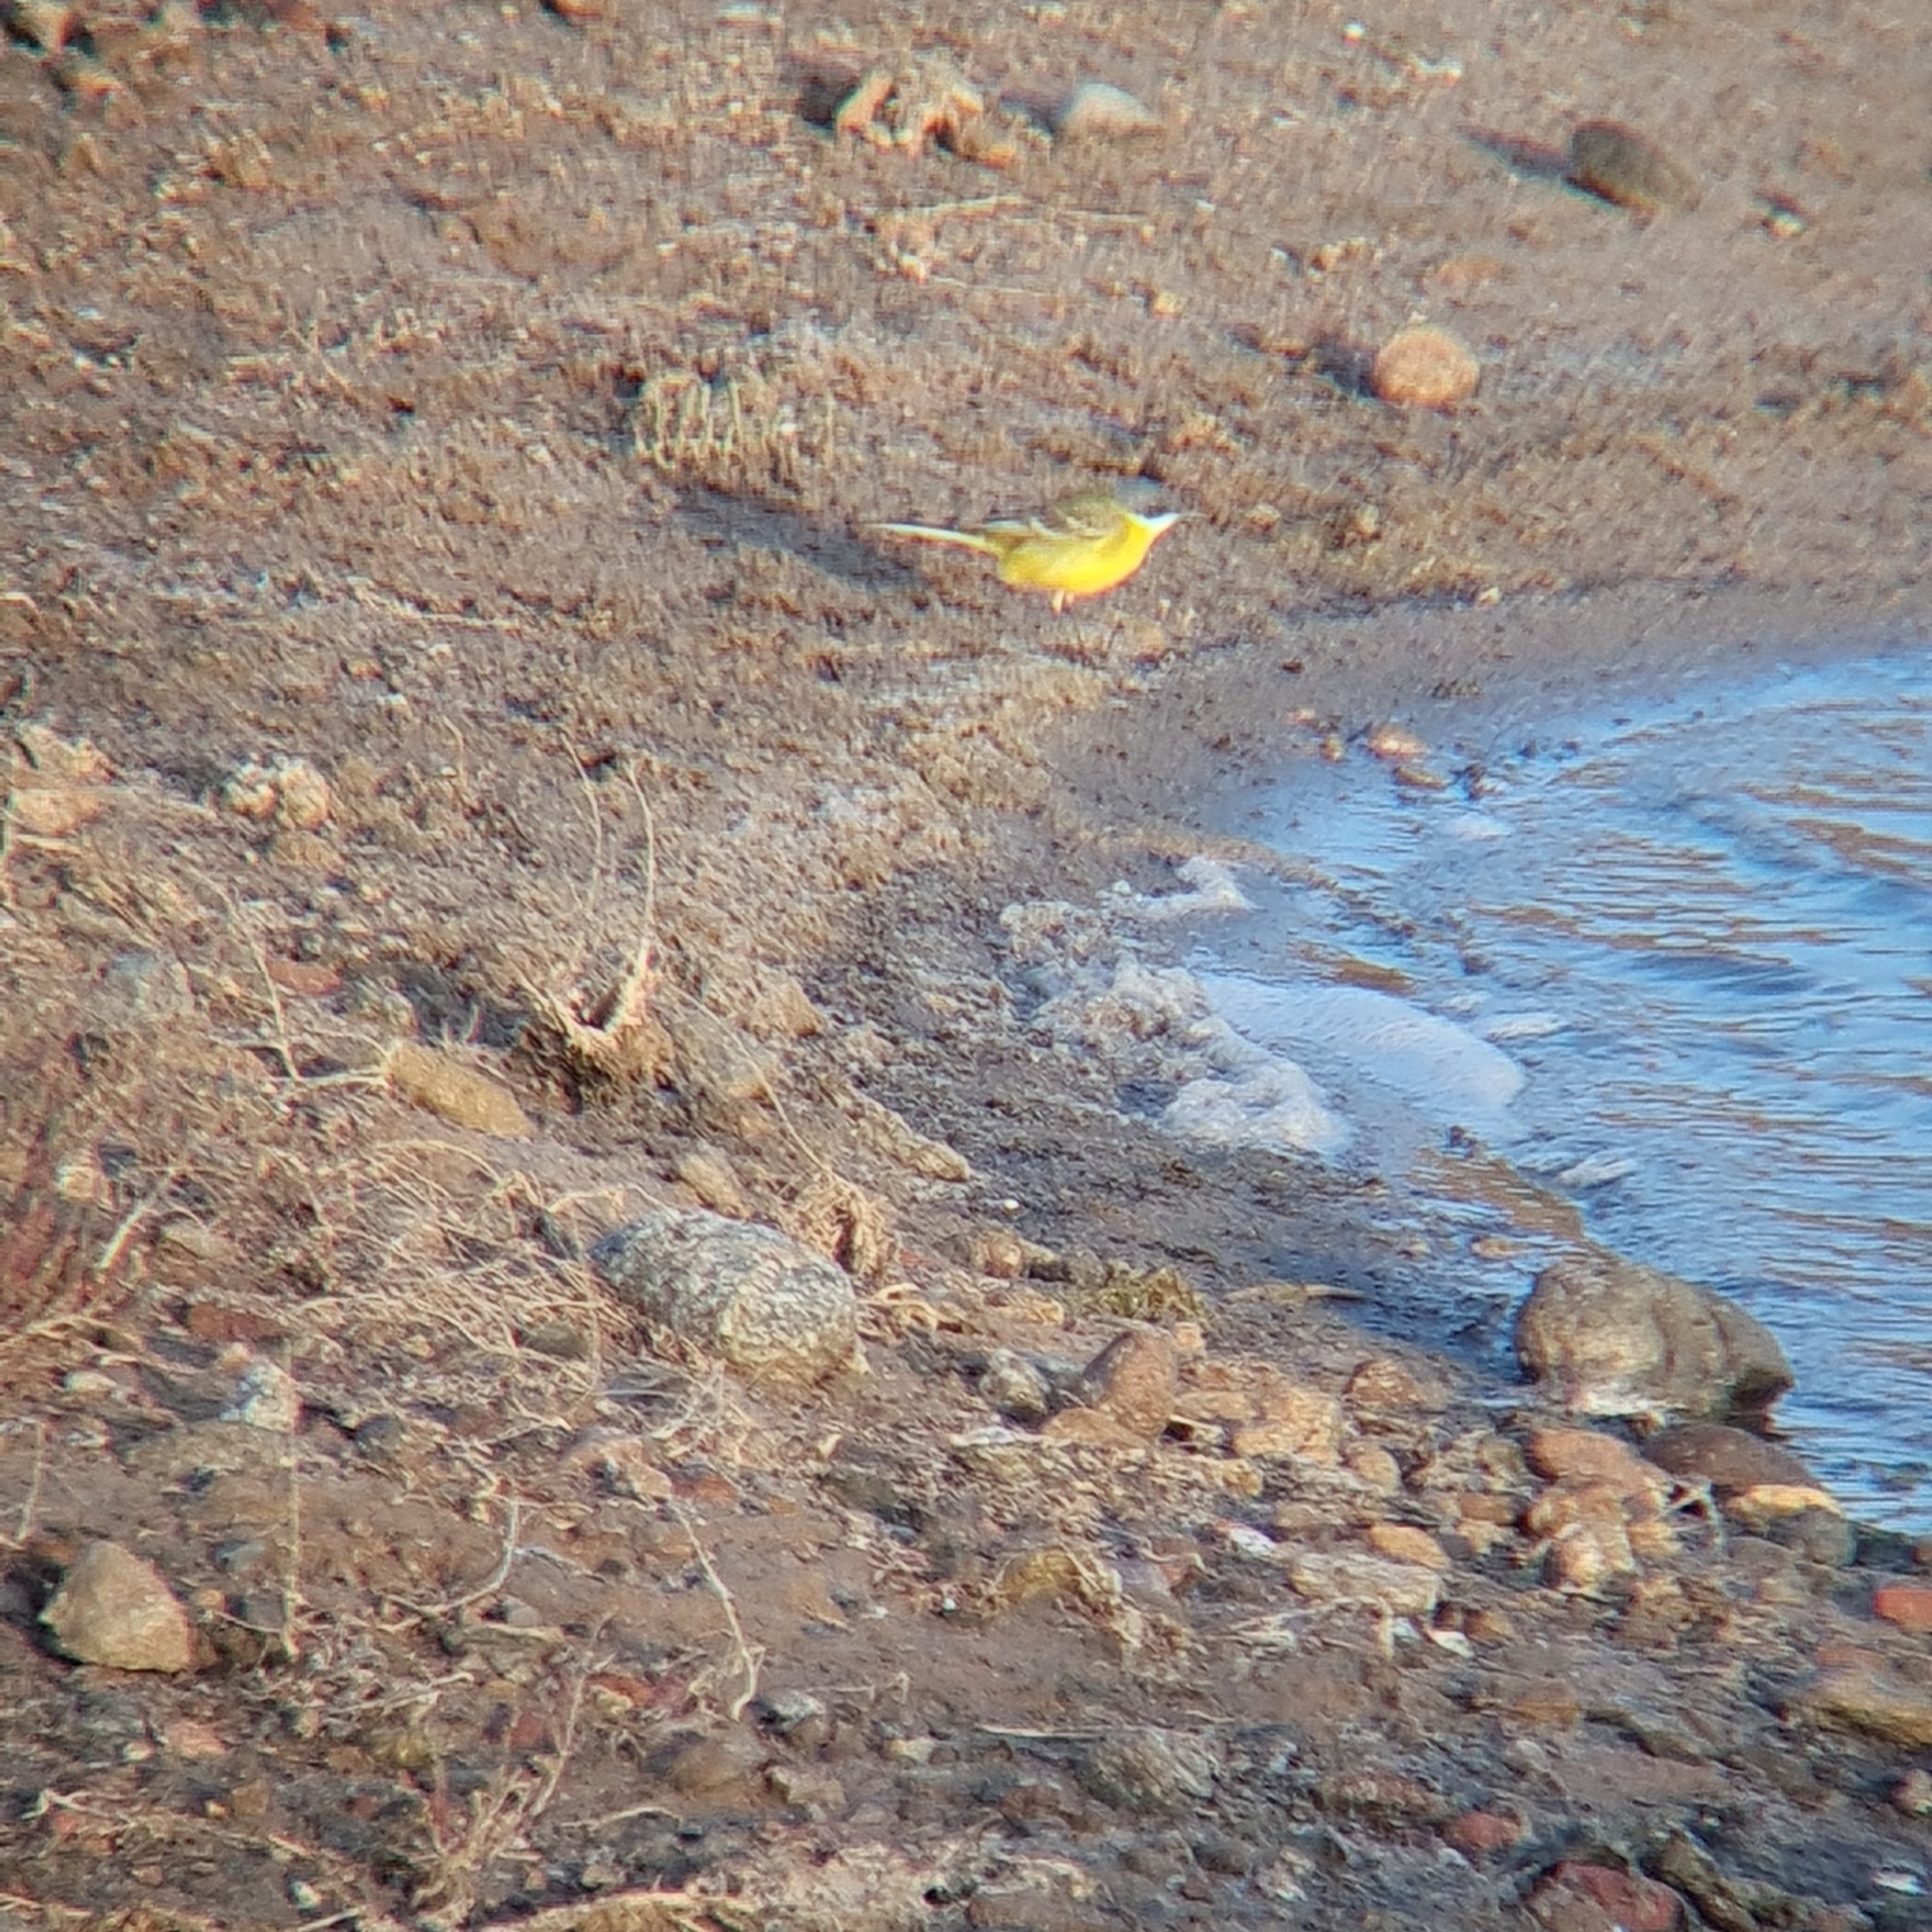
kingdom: Animalia
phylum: Chordata
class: Aves
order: Passeriformes
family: Motacillidae
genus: Motacilla
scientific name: Motacilla flava
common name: Western yellow wagtail
